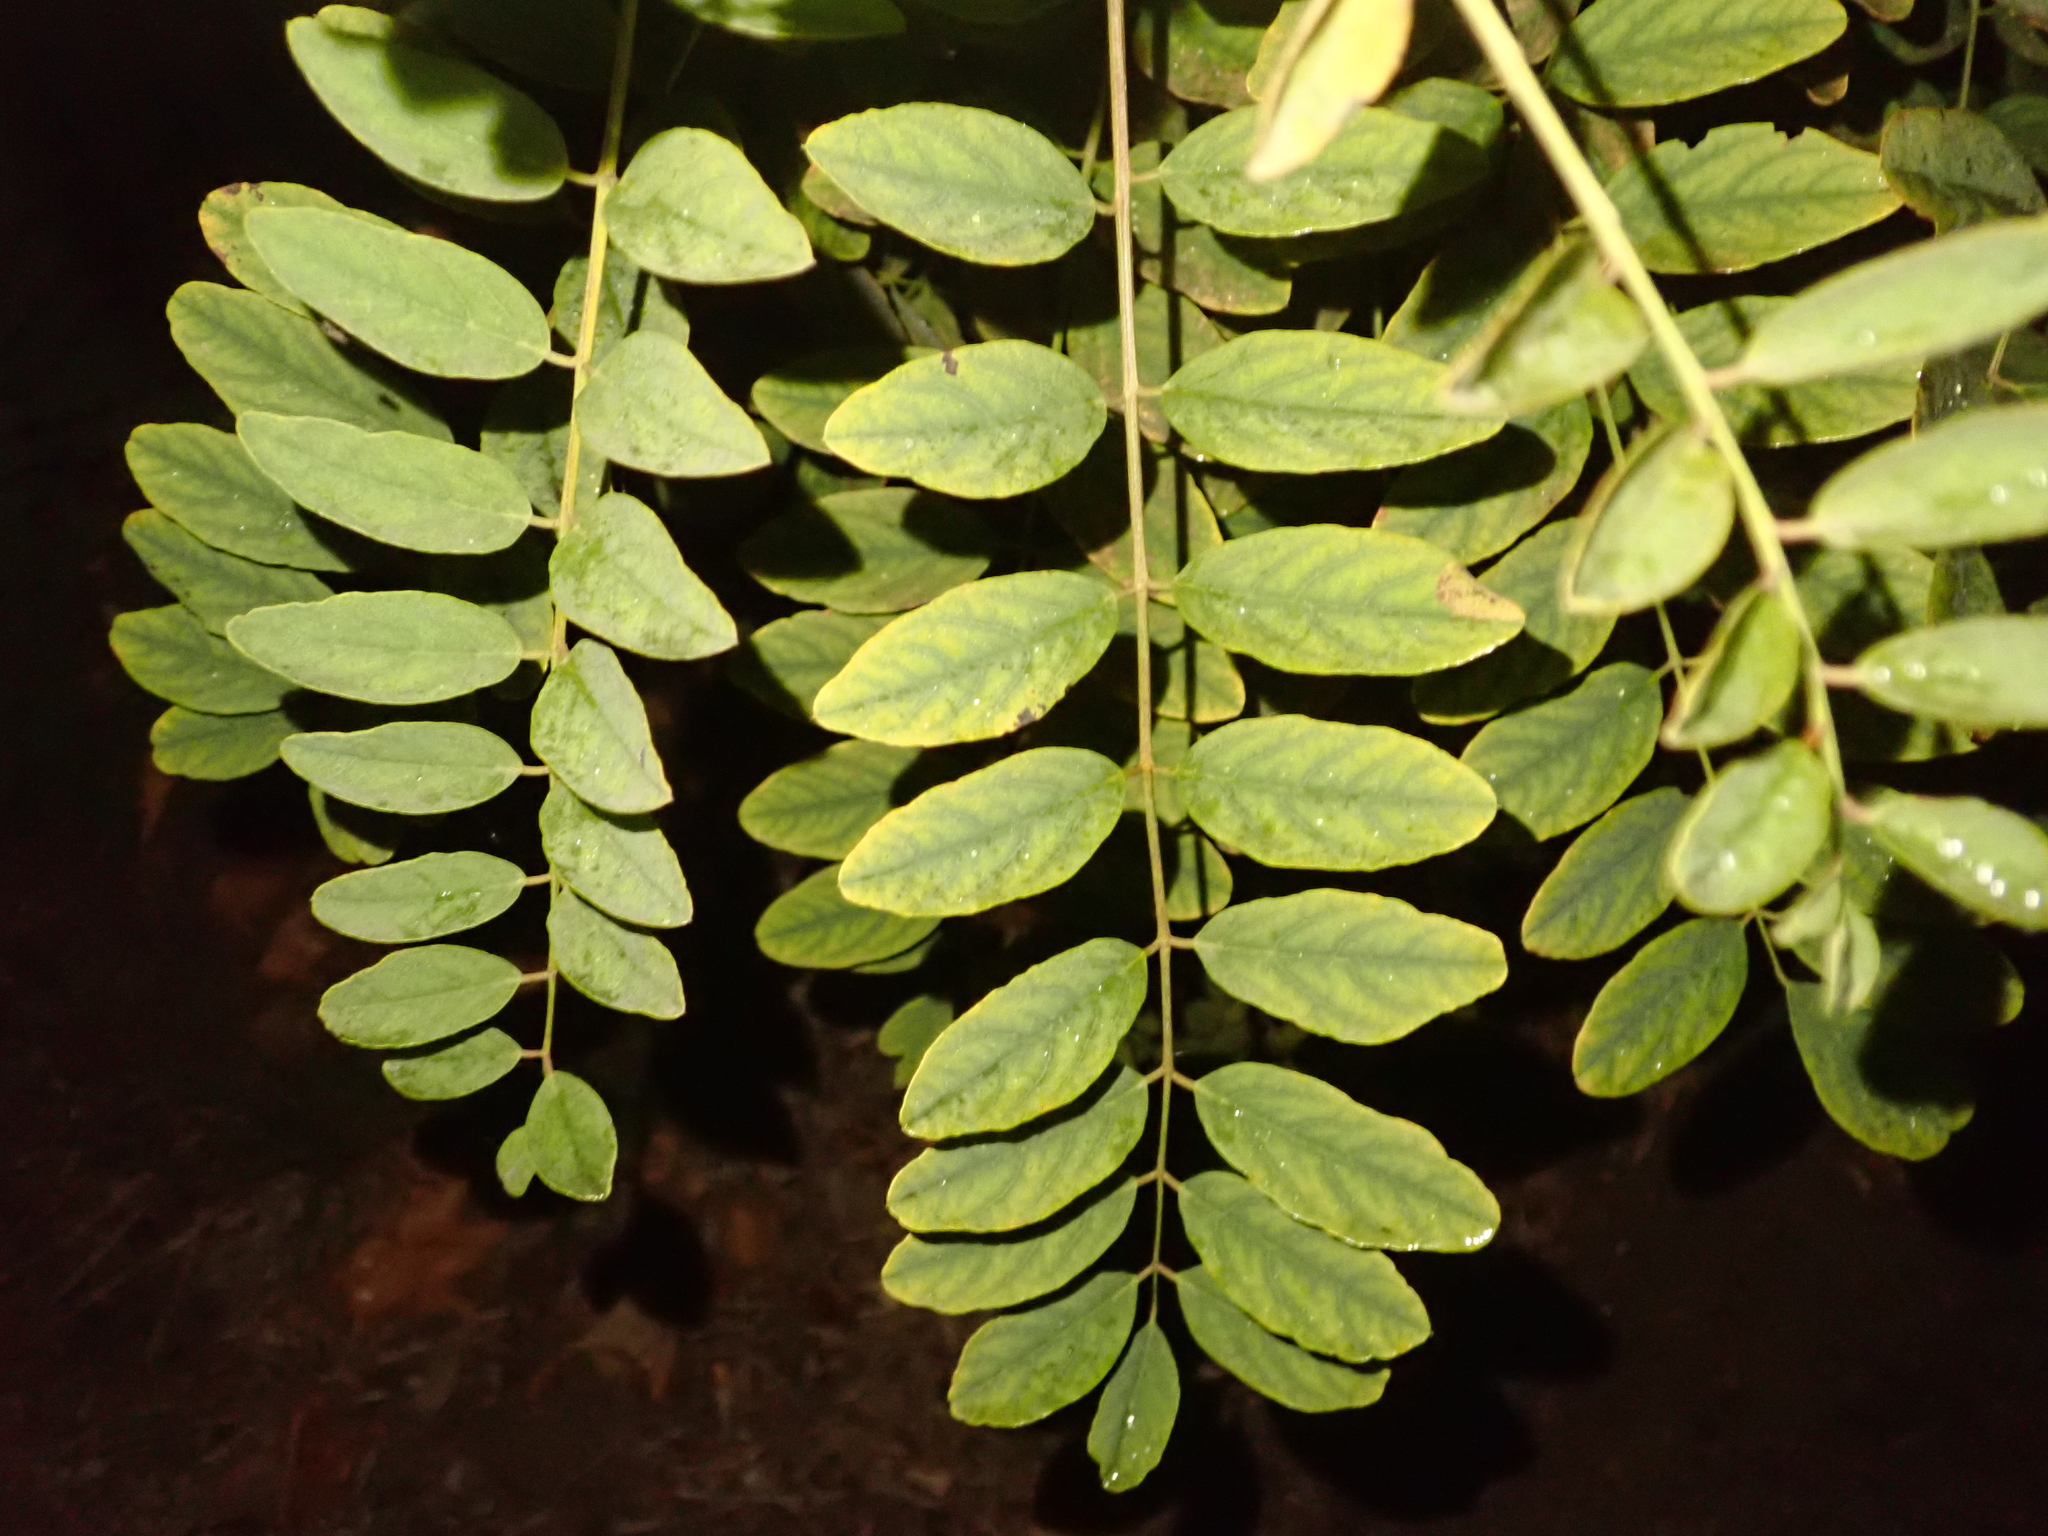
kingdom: Plantae
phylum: Tracheophyta
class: Magnoliopsida
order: Fabales
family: Fabaceae
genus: Robinia
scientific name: Robinia pseudoacacia
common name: Black locust
